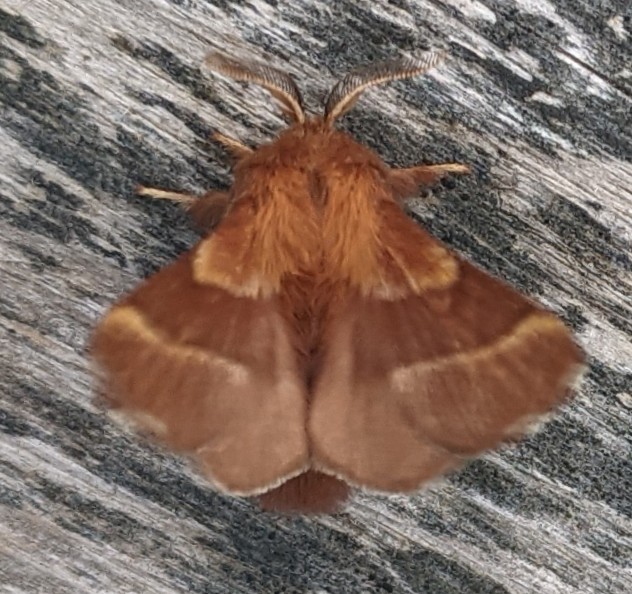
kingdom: Animalia
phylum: Arthropoda
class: Insecta
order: Lepidoptera
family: Lasiocampidae
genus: Malacosoma
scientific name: Malacosoma americana
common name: Eastern tent caterpillar moth
